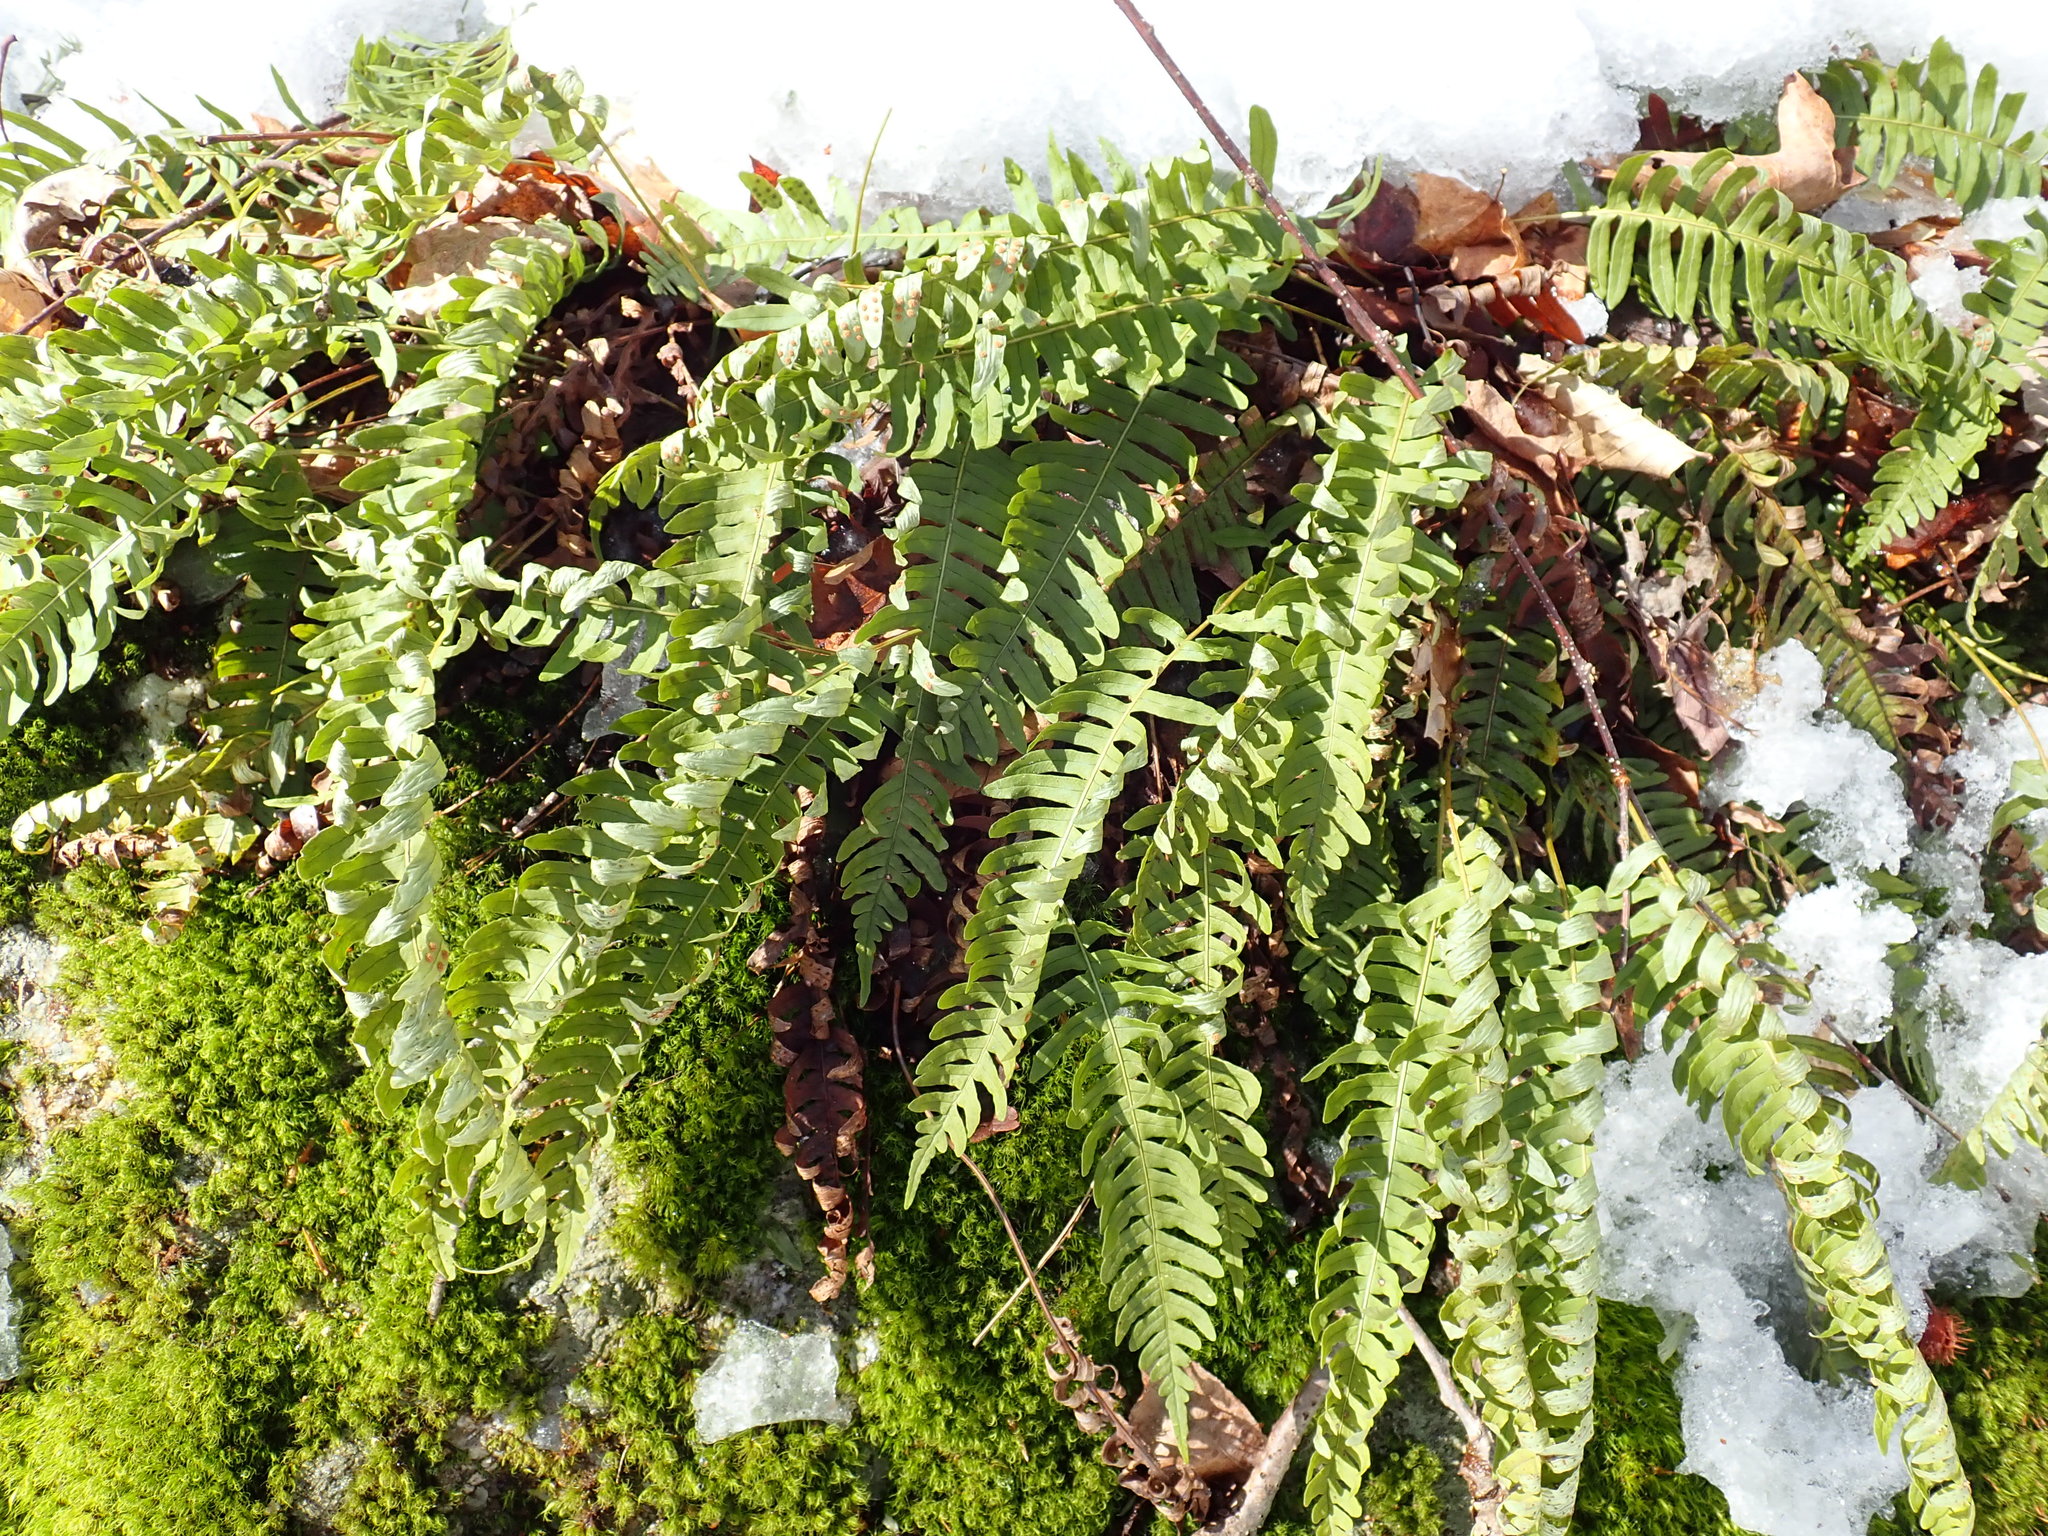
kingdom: Plantae
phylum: Tracheophyta
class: Polypodiopsida
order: Polypodiales
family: Polypodiaceae
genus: Polypodium
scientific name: Polypodium
